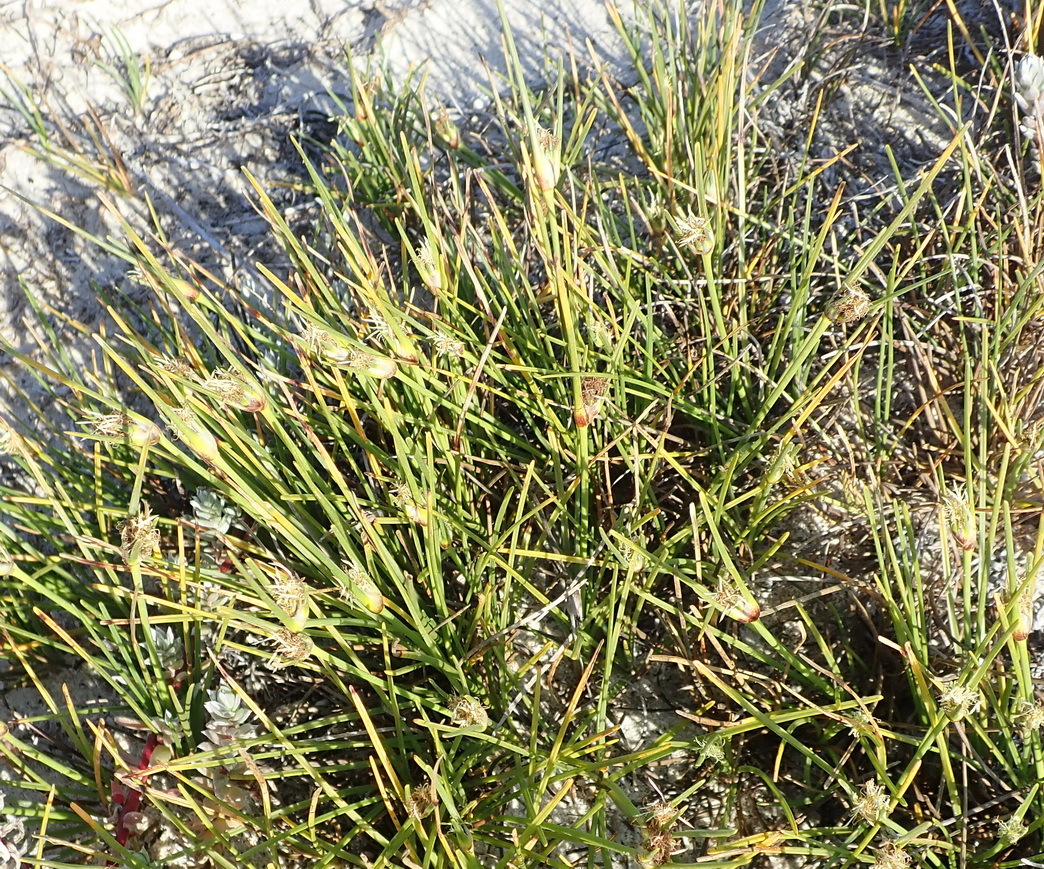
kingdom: Plantae
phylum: Tracheophyta
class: Liliopsida
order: Poales
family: Cyperaceae
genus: Ficinia
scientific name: Ficinia overbergensis
